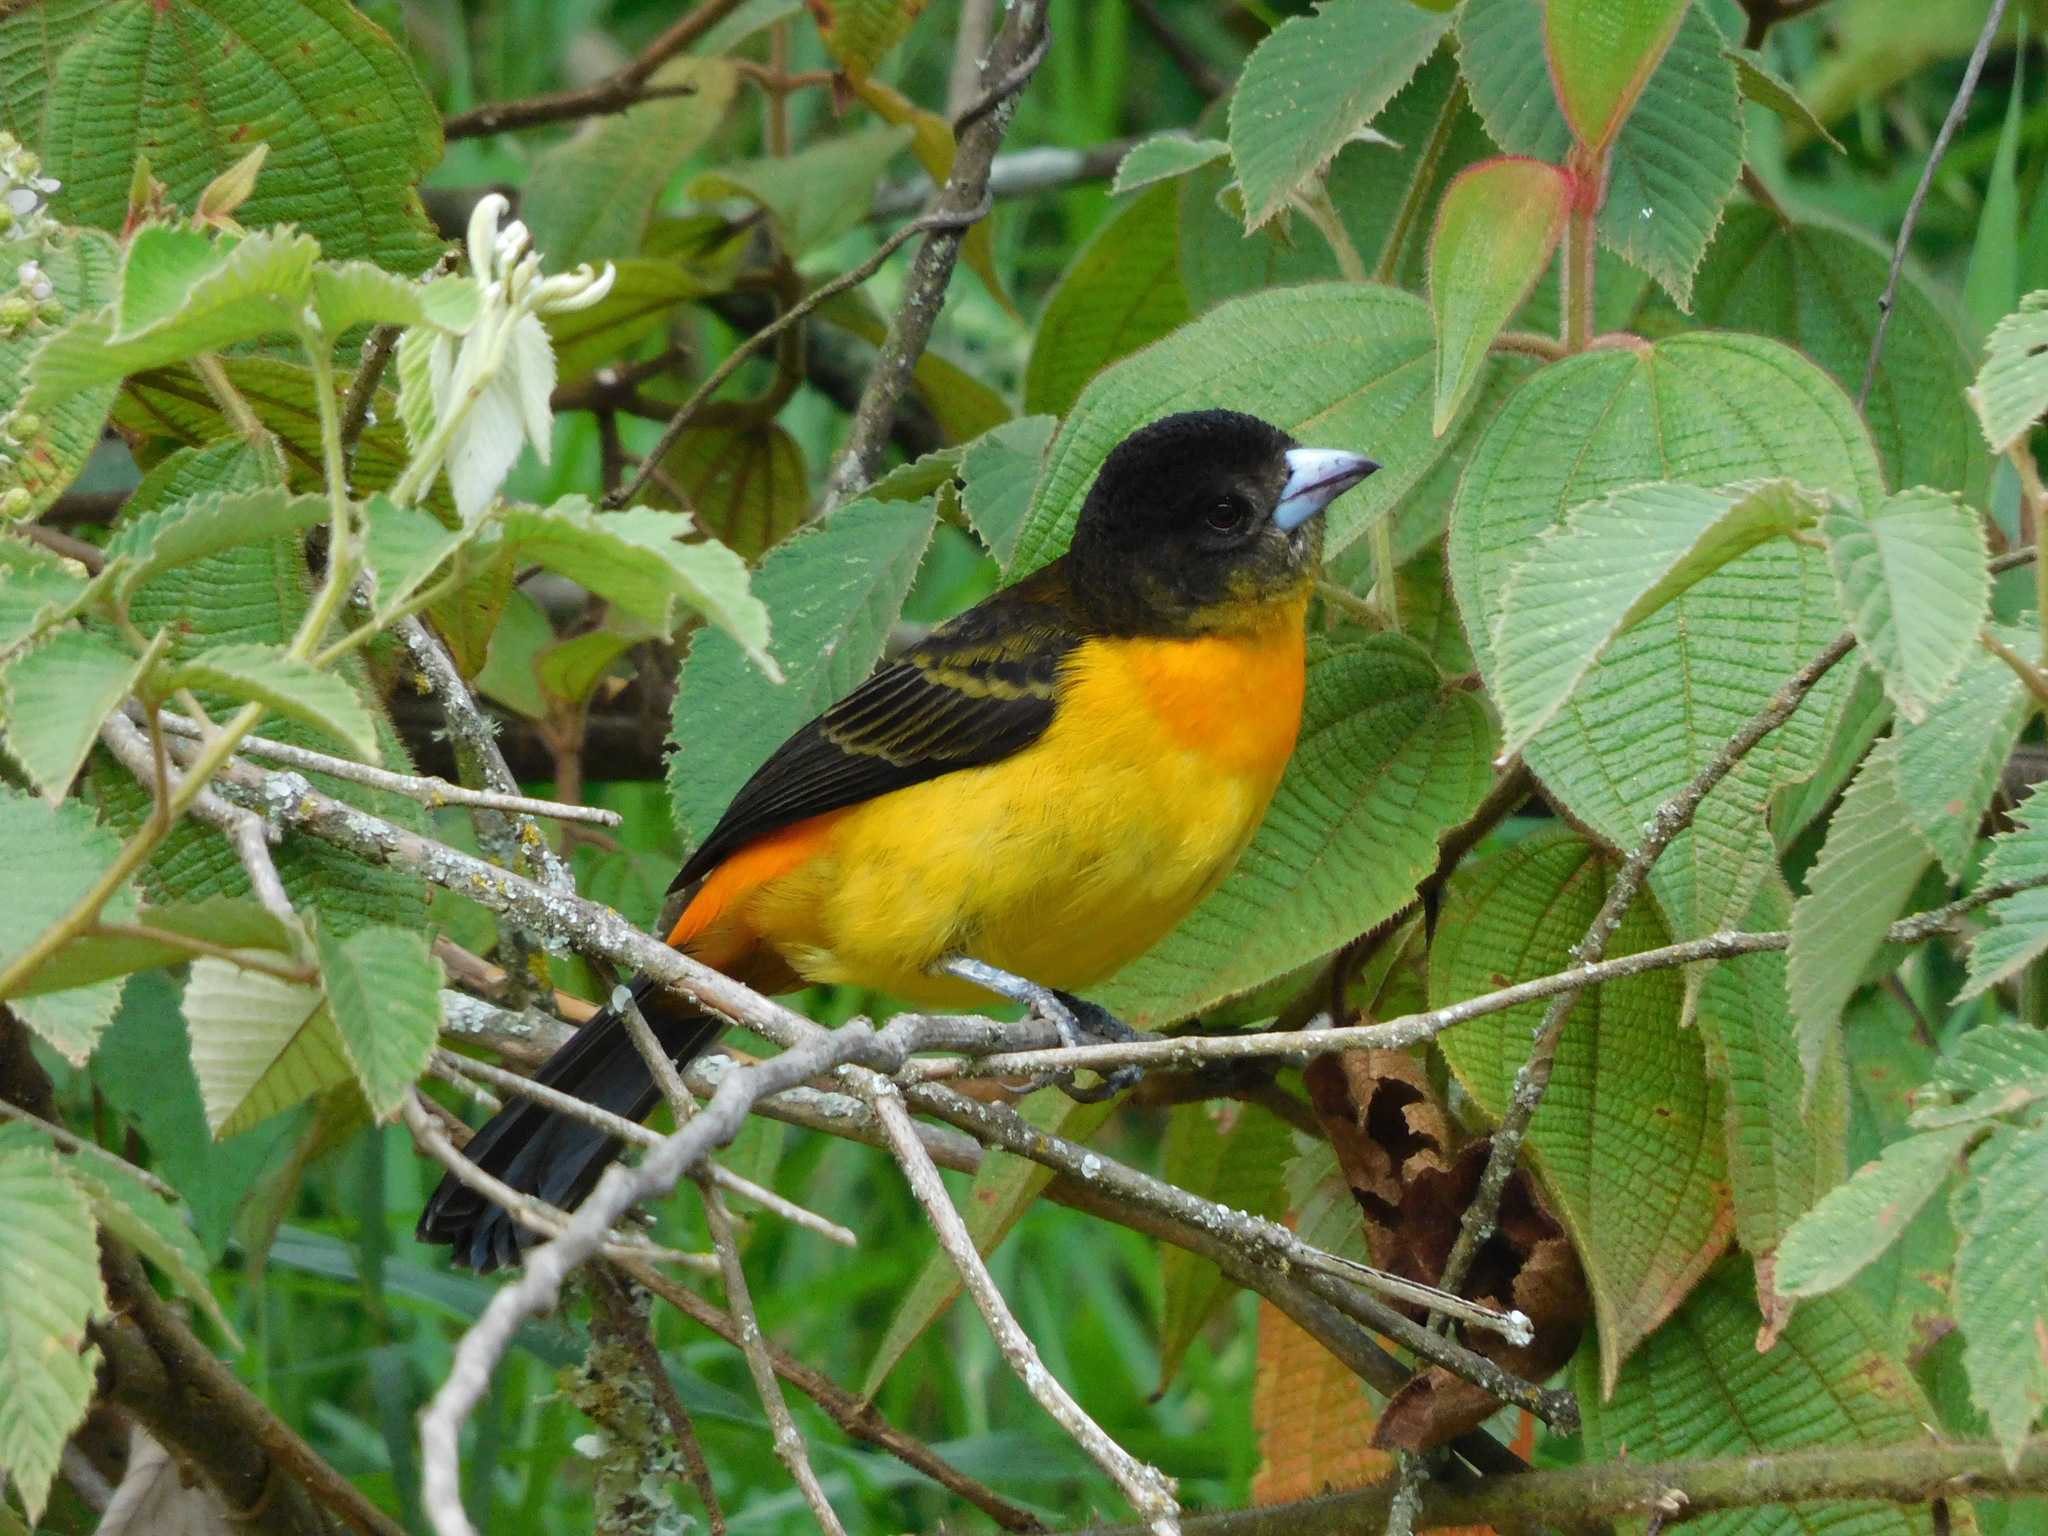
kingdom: Animalia
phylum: Chordata
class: Aves
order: Passeriformes
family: Thraupidae
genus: Ramphocelus
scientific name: Ramphocelus flammigerus
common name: Flame-rumped tanager
